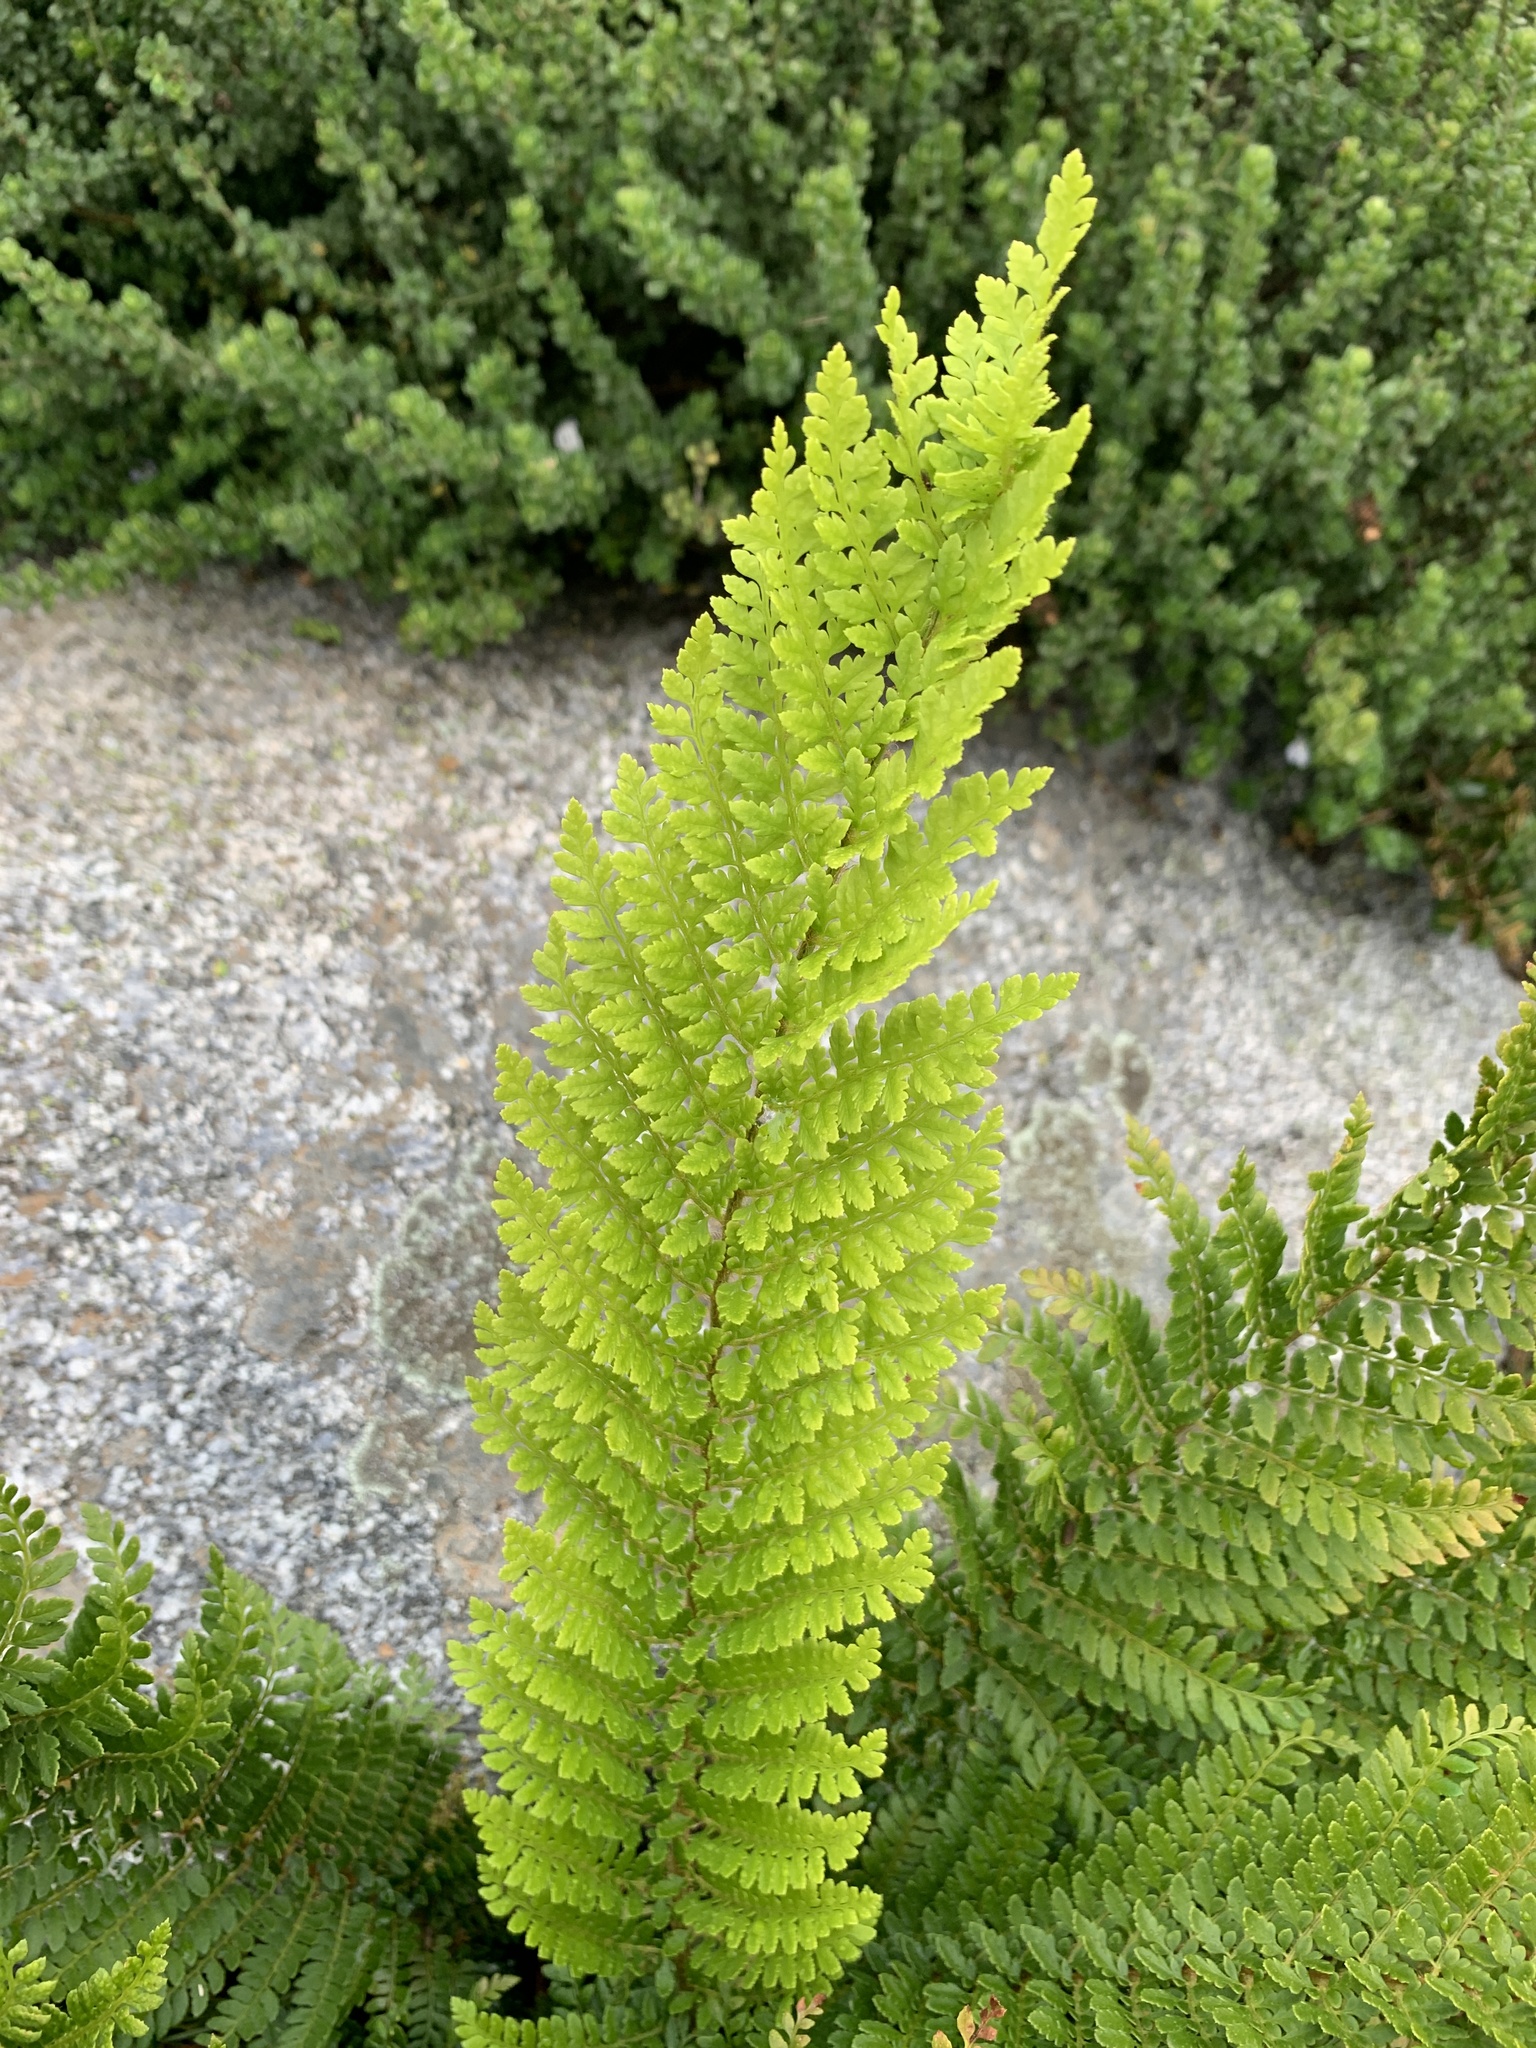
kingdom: Plantae
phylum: Tracheophyta
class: Polypodiopsida
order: Polypodiales
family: Dryopteridaceae
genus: Polystichum
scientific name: Polystichum proliferum
